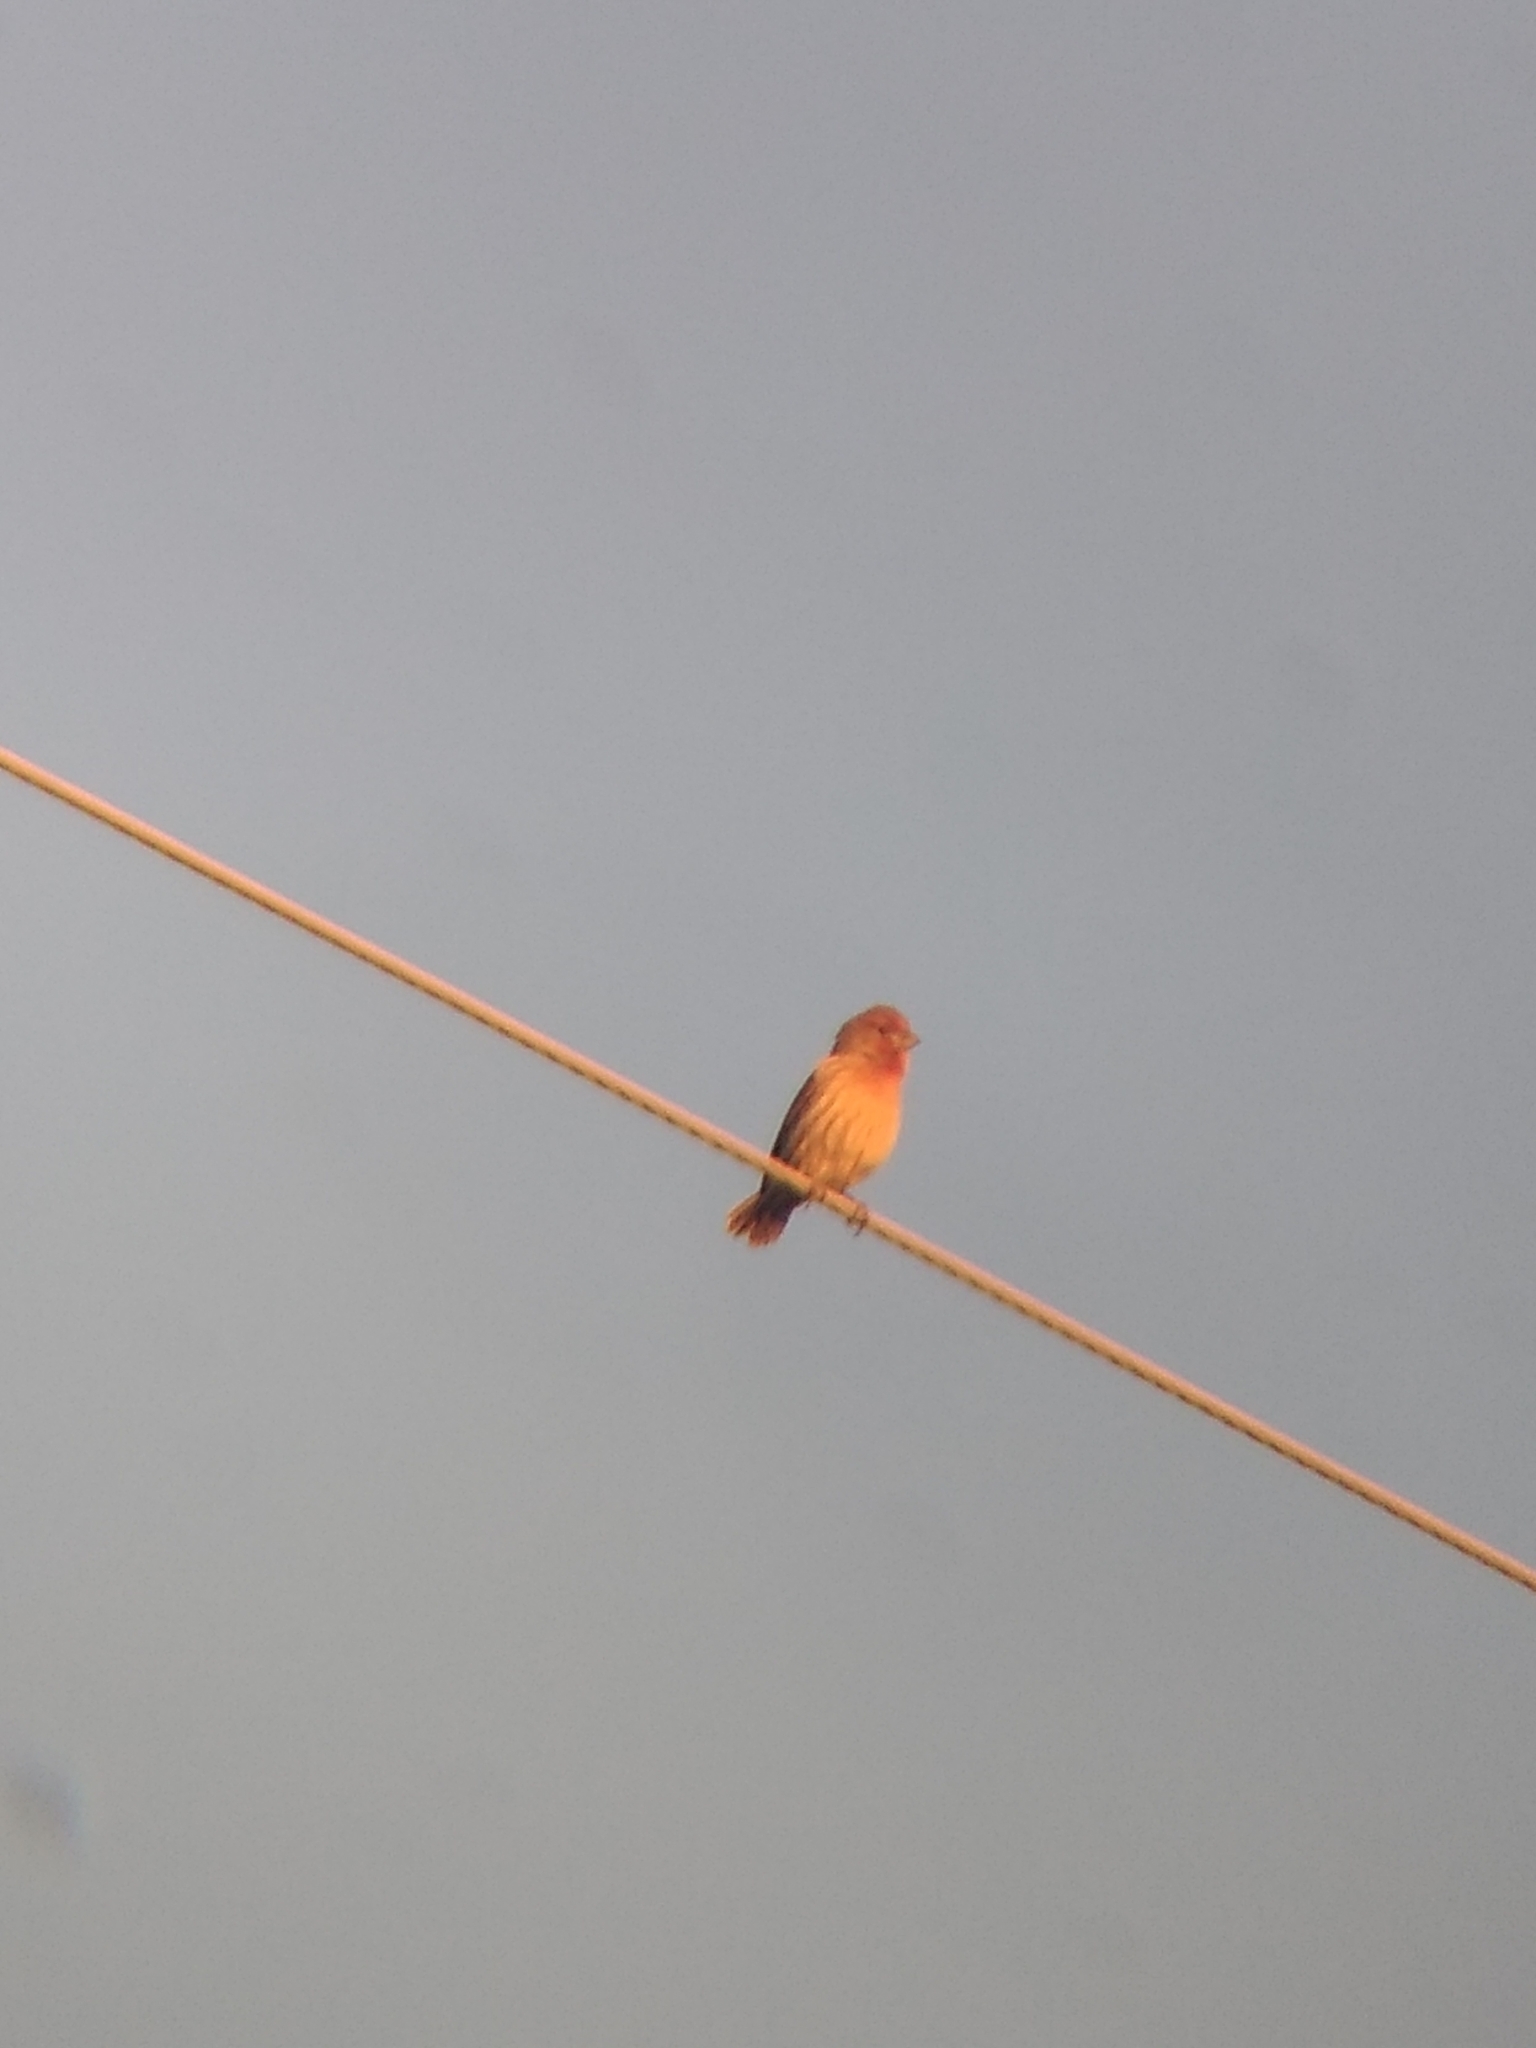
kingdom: Animalia
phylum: Chordata
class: Aves
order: Passeriformes
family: Fringillidae
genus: Haemorhous
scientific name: Haemorhous mexicanus
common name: House finch
